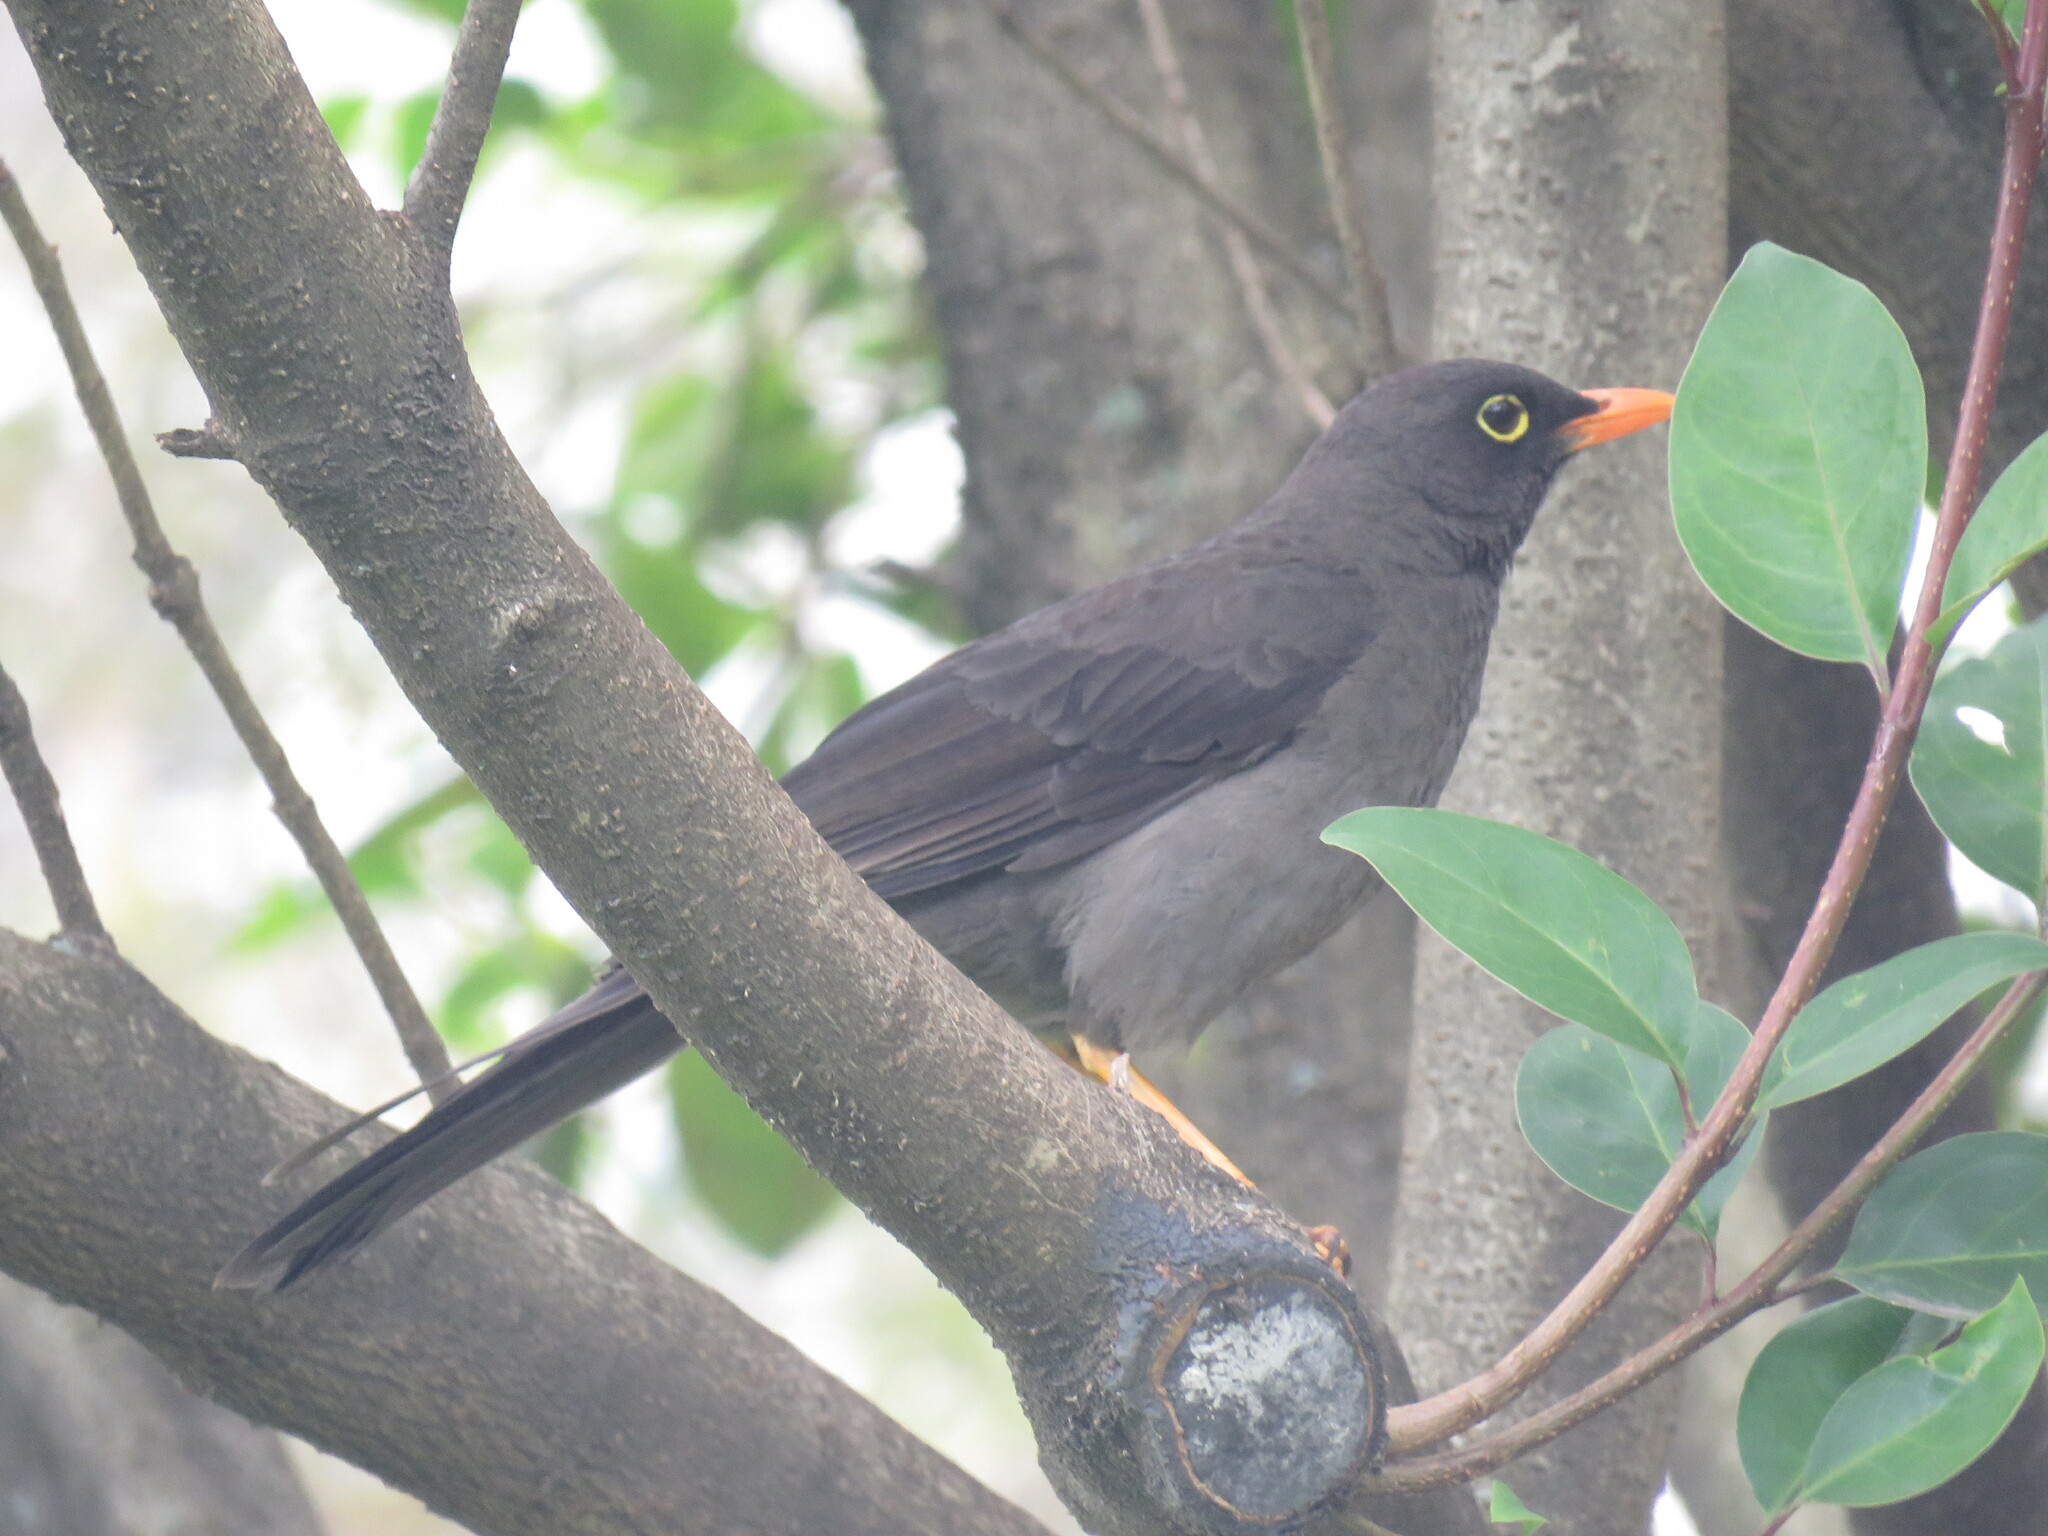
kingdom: Animalia
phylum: Chordata
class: Aves
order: Passeriformes
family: Turdidae
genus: Turdus
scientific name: Turdus fuscater
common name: Great thrush
